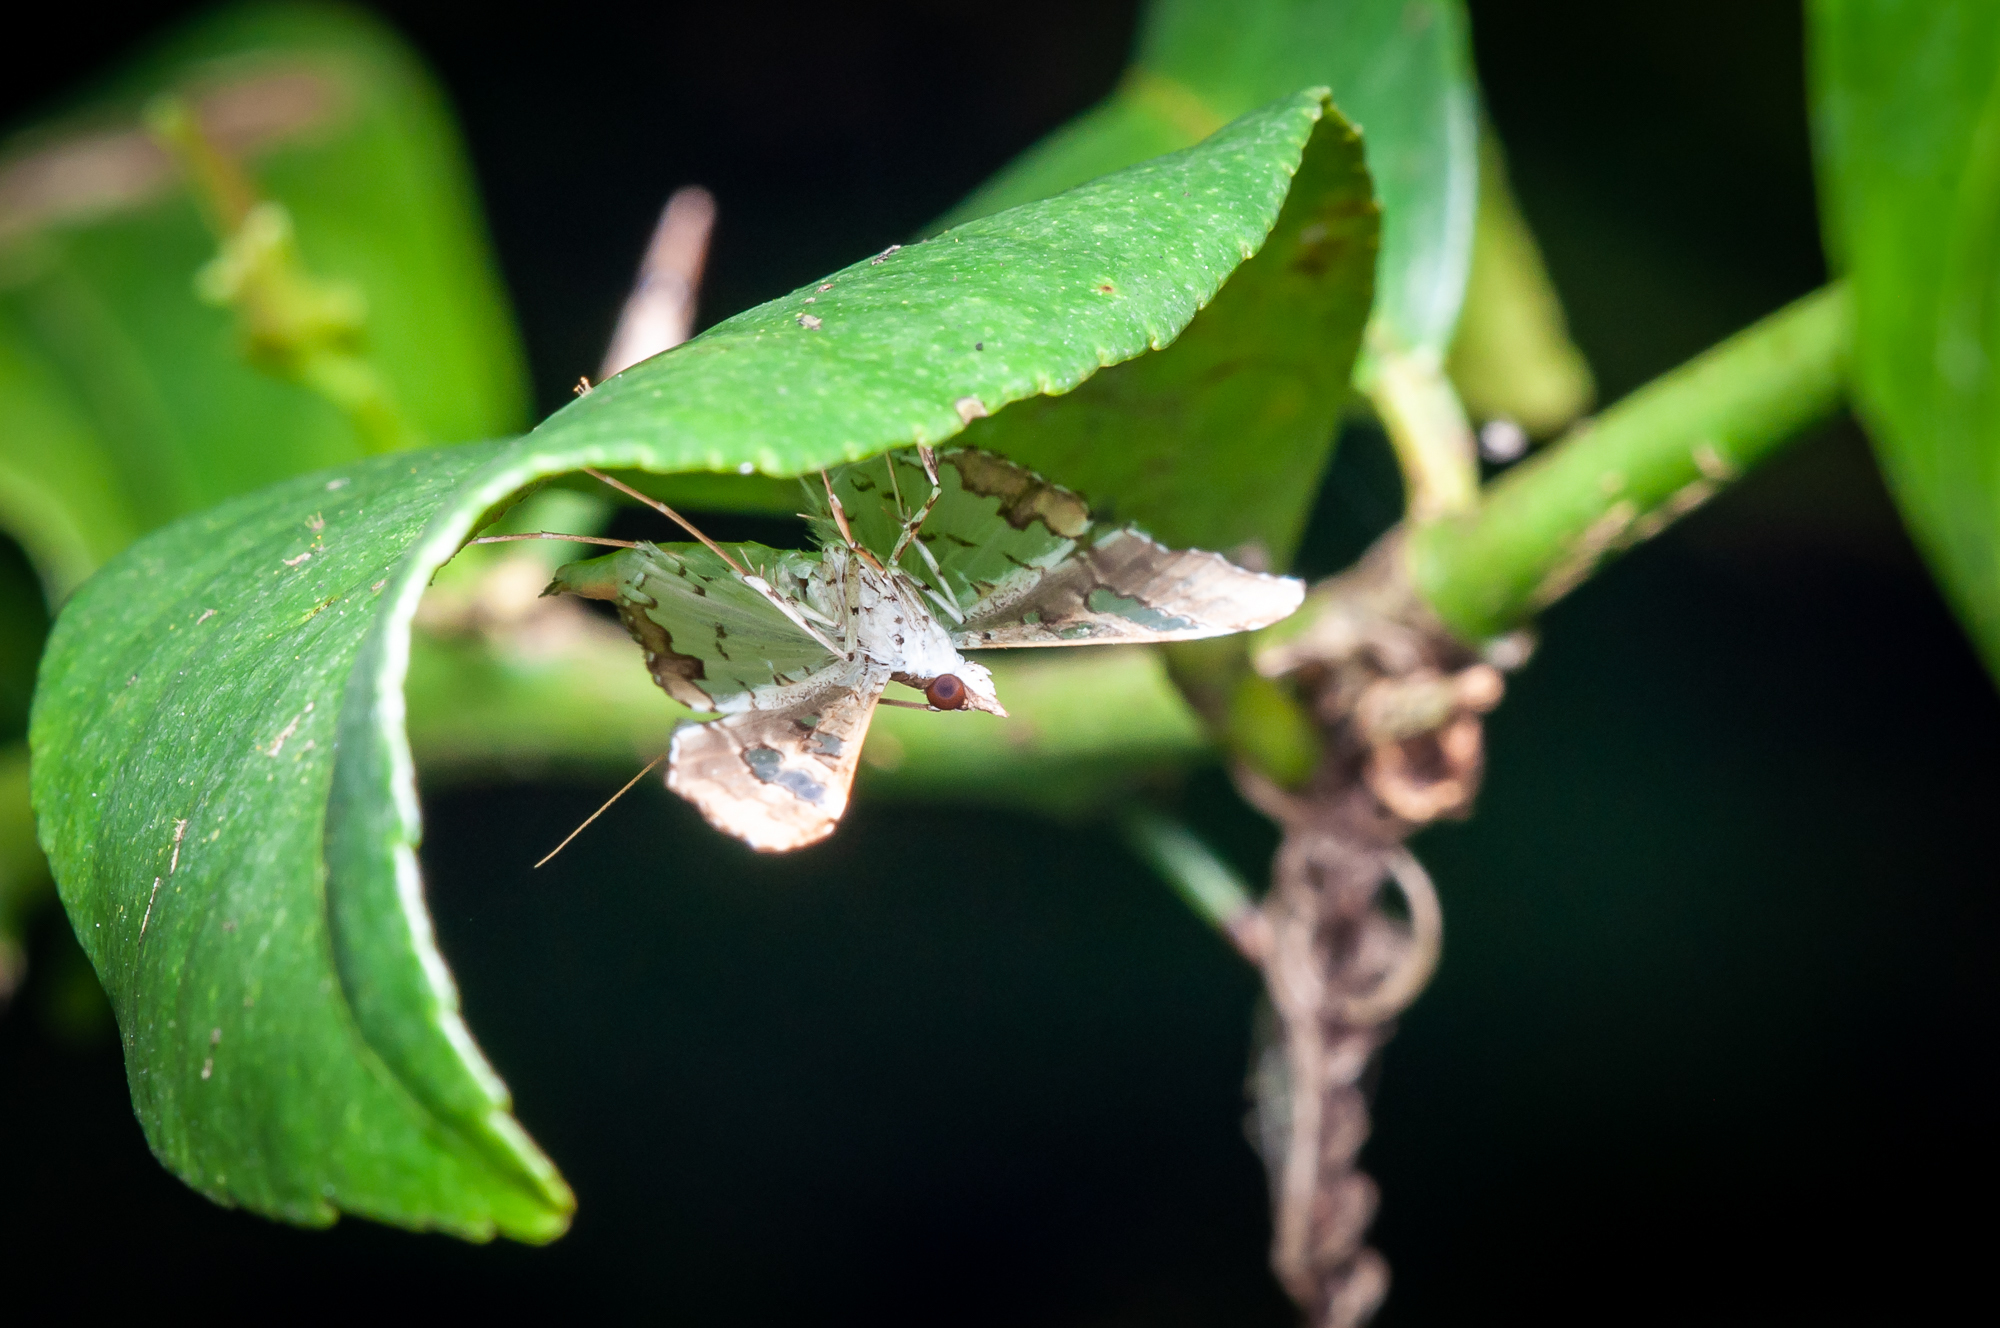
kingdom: Animalia
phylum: Arthropoda
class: Insecta
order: Lepidoptera
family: Crambidae
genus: Maruca
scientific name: Maruca vitrata
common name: Maruca pod borer
